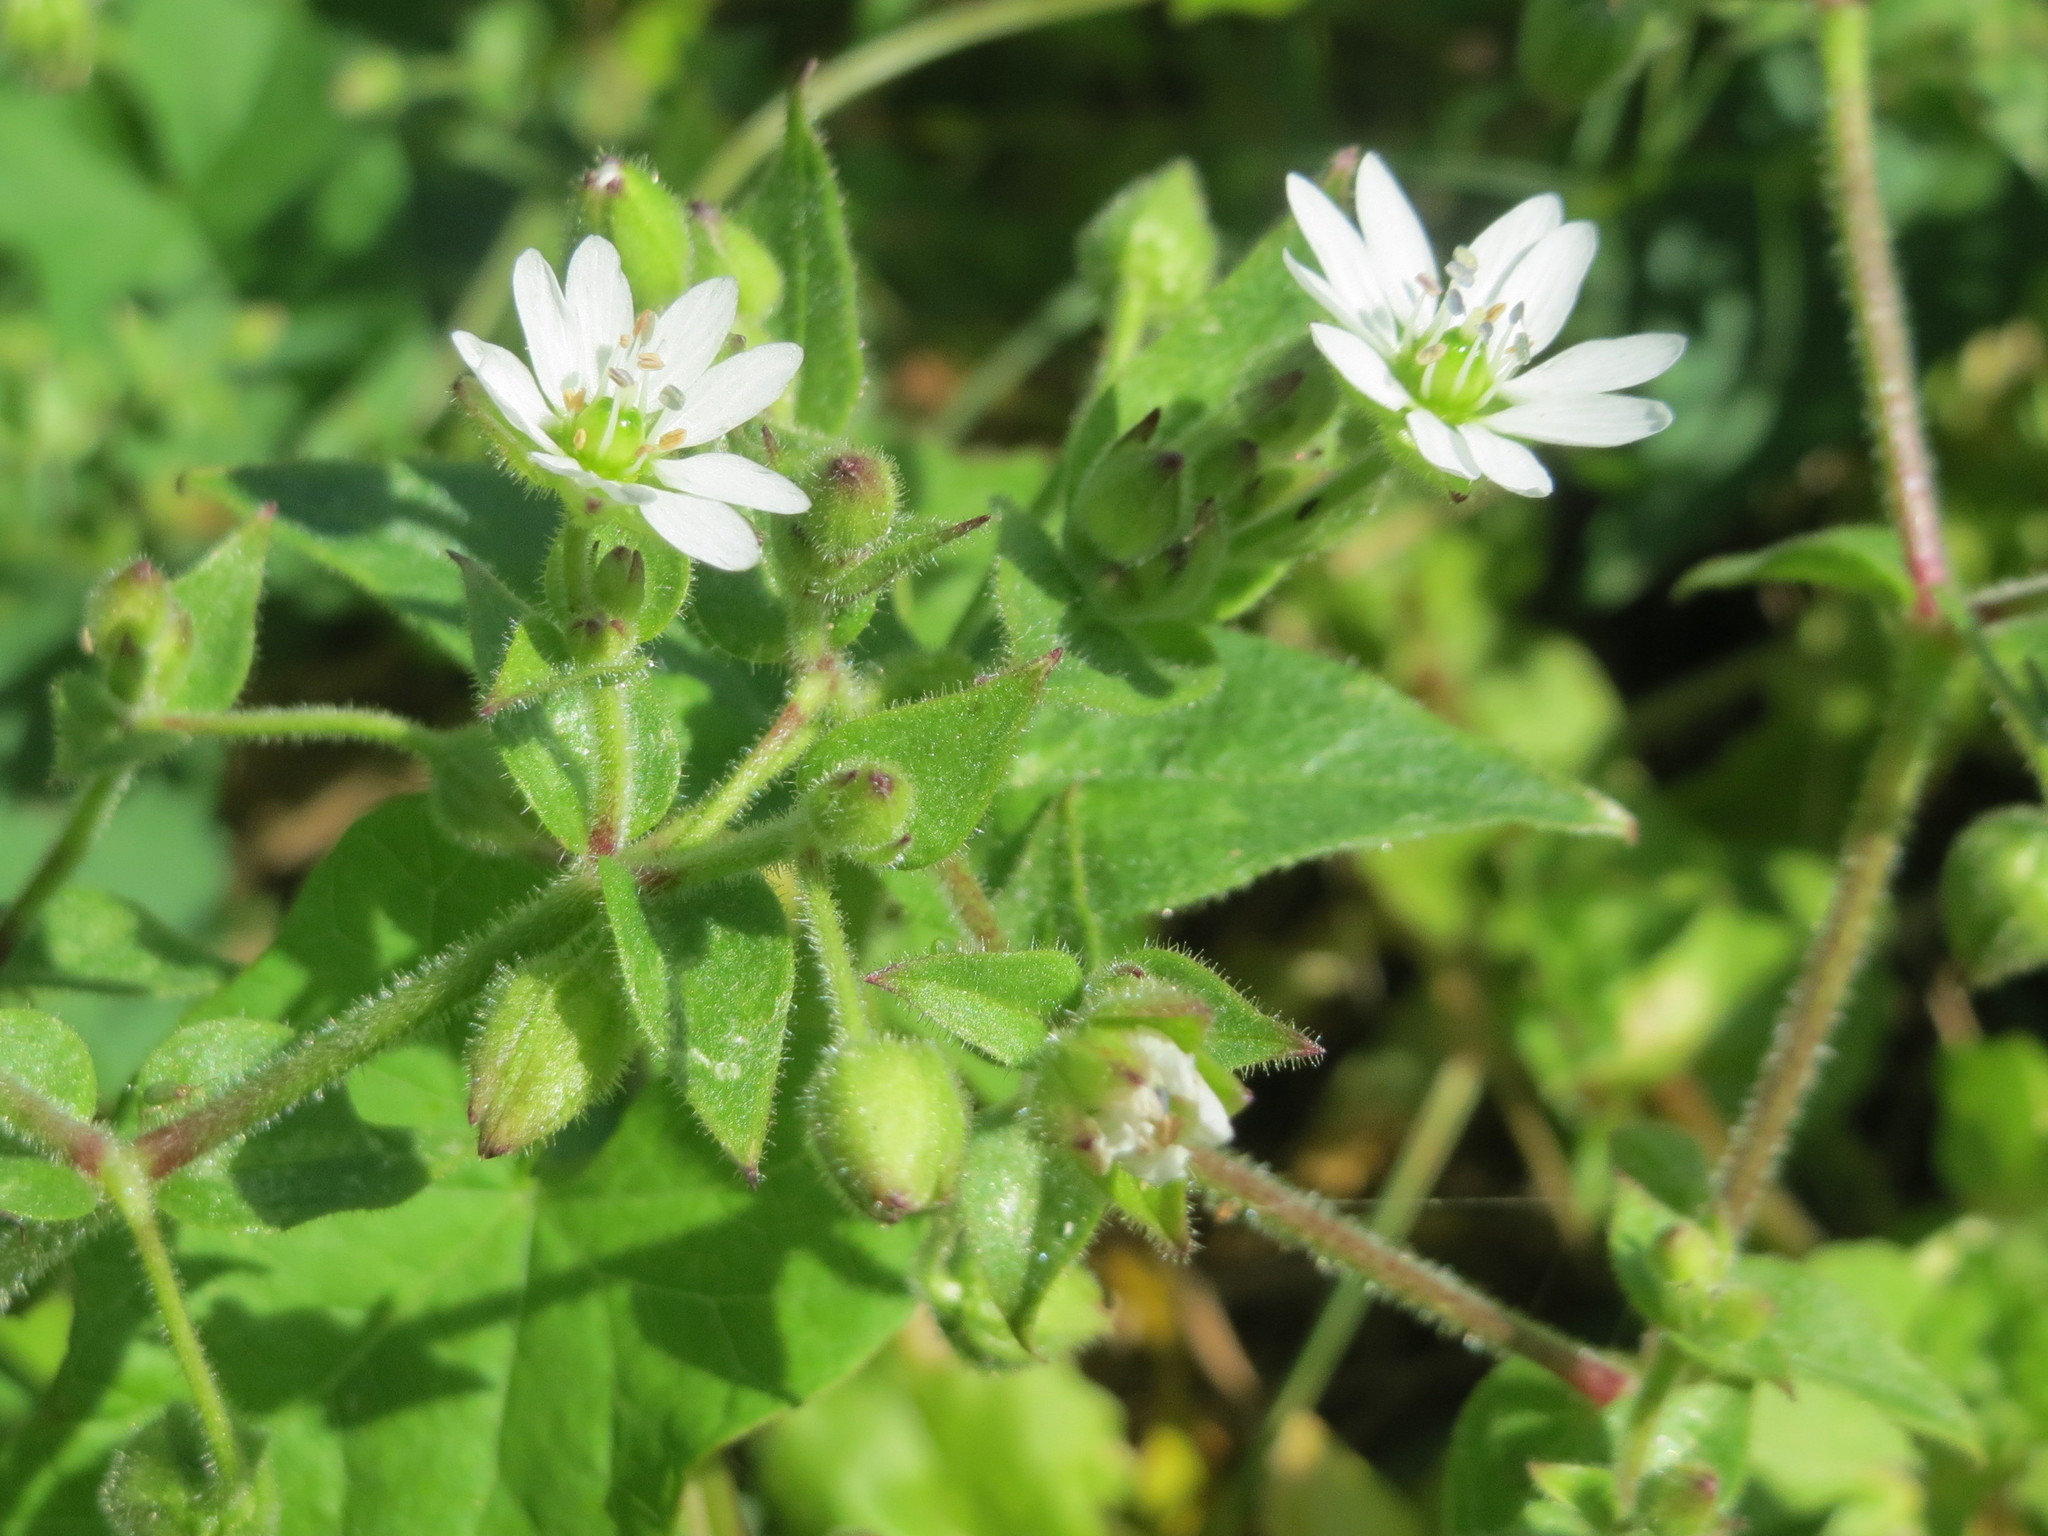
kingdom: Plantae
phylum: Tracheophyta
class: Magnoliopsida
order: Caryophyllales
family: Caryophyllaceae
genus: Stellaria
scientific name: Stellaria aquatica
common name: Water chickweed
